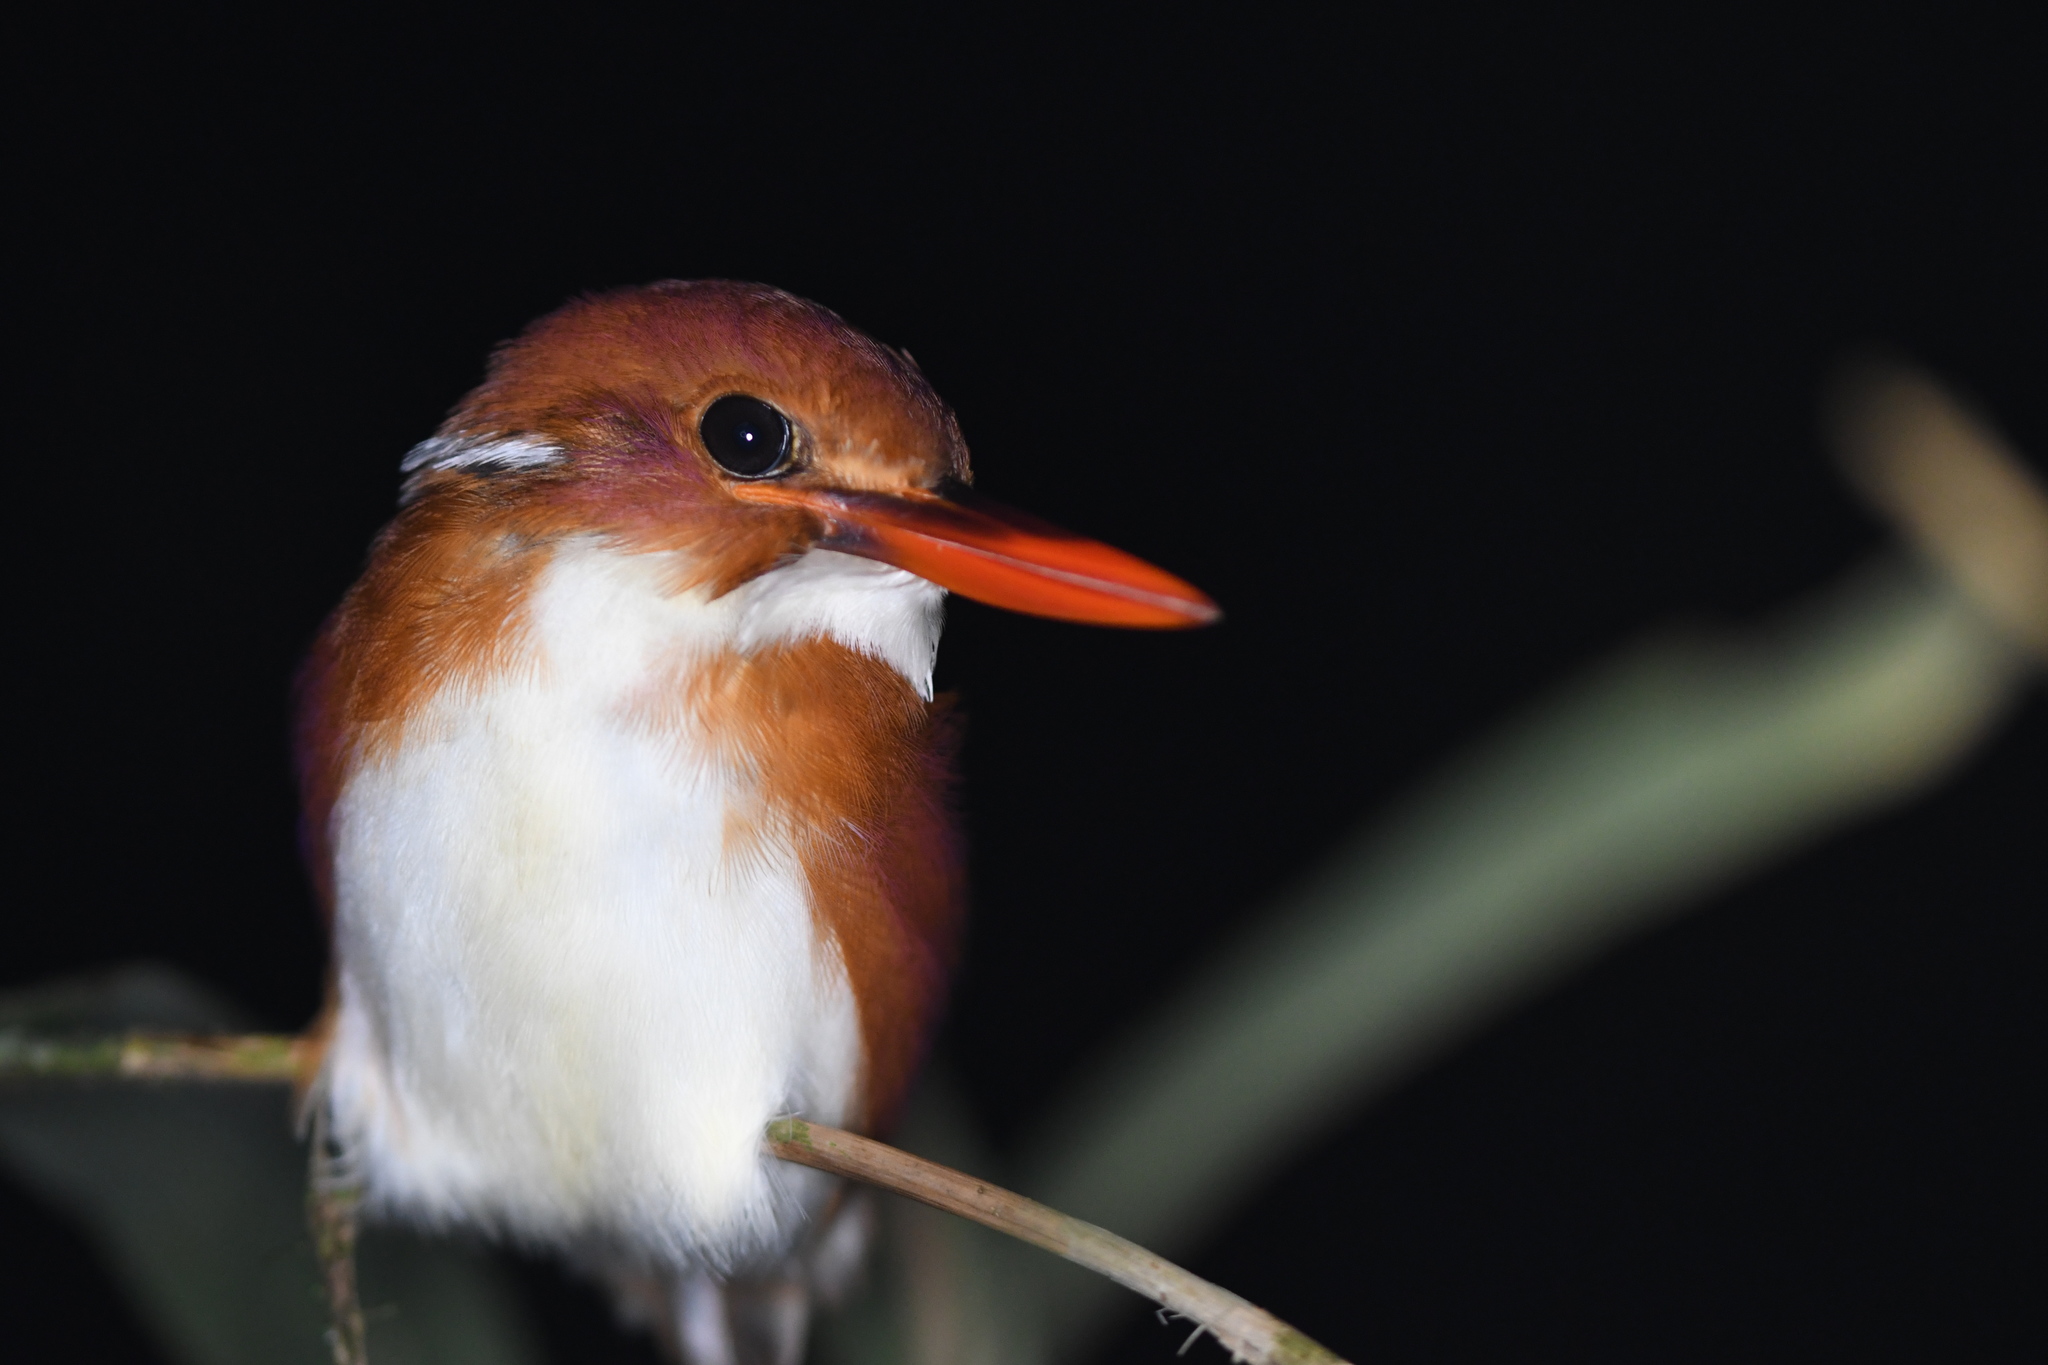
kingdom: Animalia
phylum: Chordata
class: Aves
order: Coraciiformes
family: Alcedinidae
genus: Corythornis
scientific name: Corythornis madagascariensis
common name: Madagascar pygmy-kingfisher
